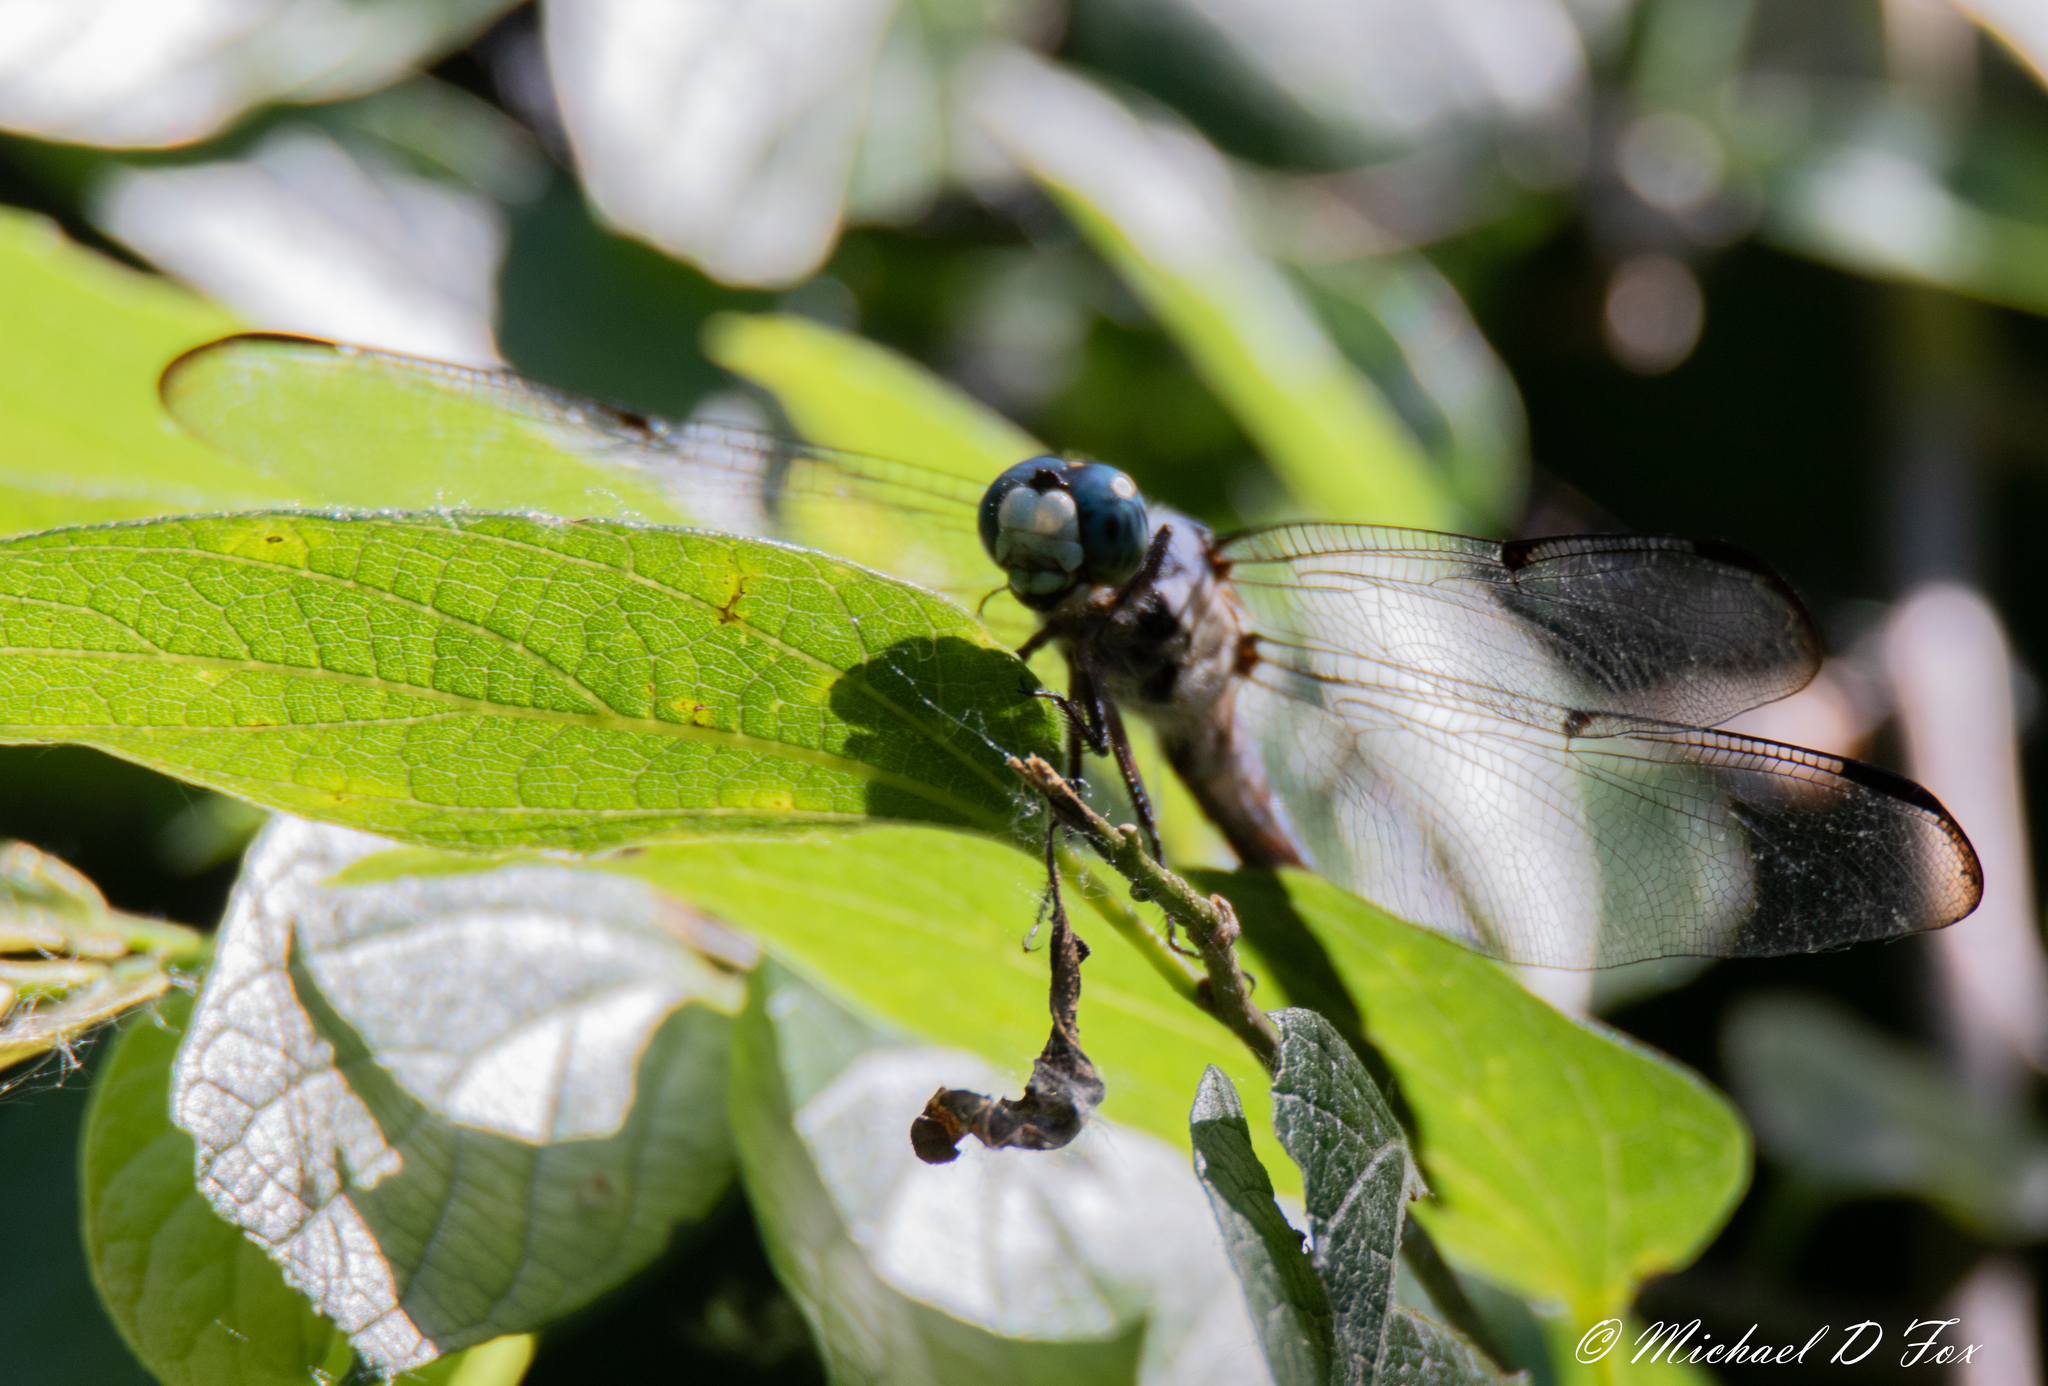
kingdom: Animalia
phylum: Arthropoda
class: Insecta
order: Odonata
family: Libellulidae
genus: Libellula
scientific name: Libellula vibrans
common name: Great blue skimmer
